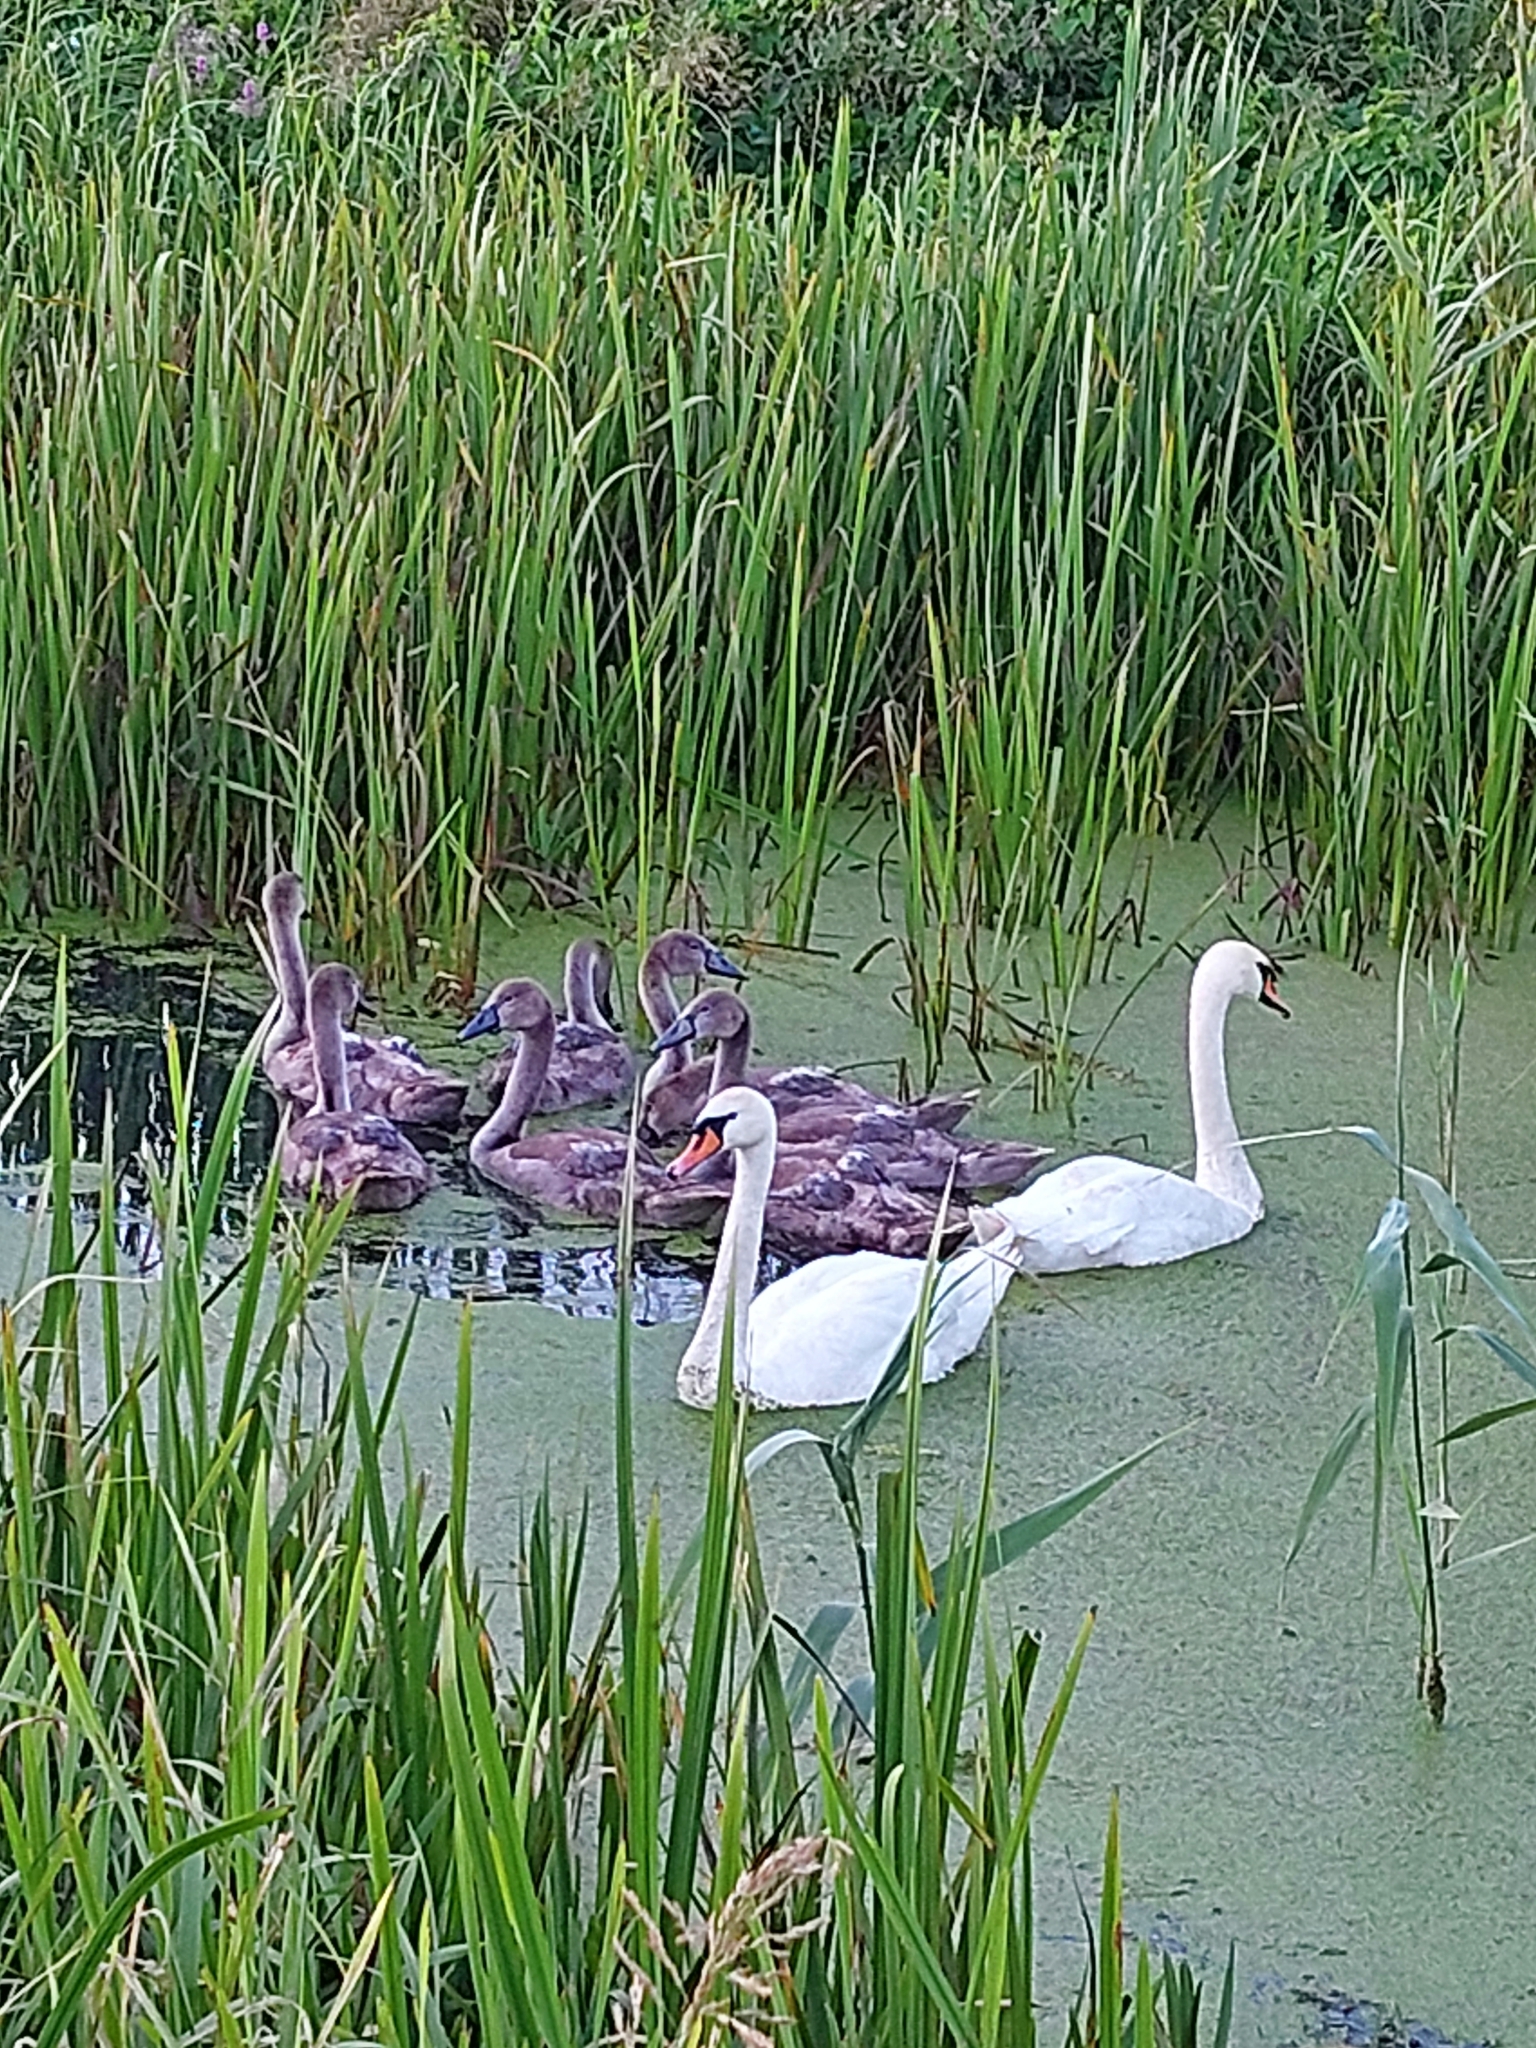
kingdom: Animalia
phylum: Chordata
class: Aves
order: Anseriformes
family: Anatidae
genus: Cygnus
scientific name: Cygnus olor
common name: Mute swan
